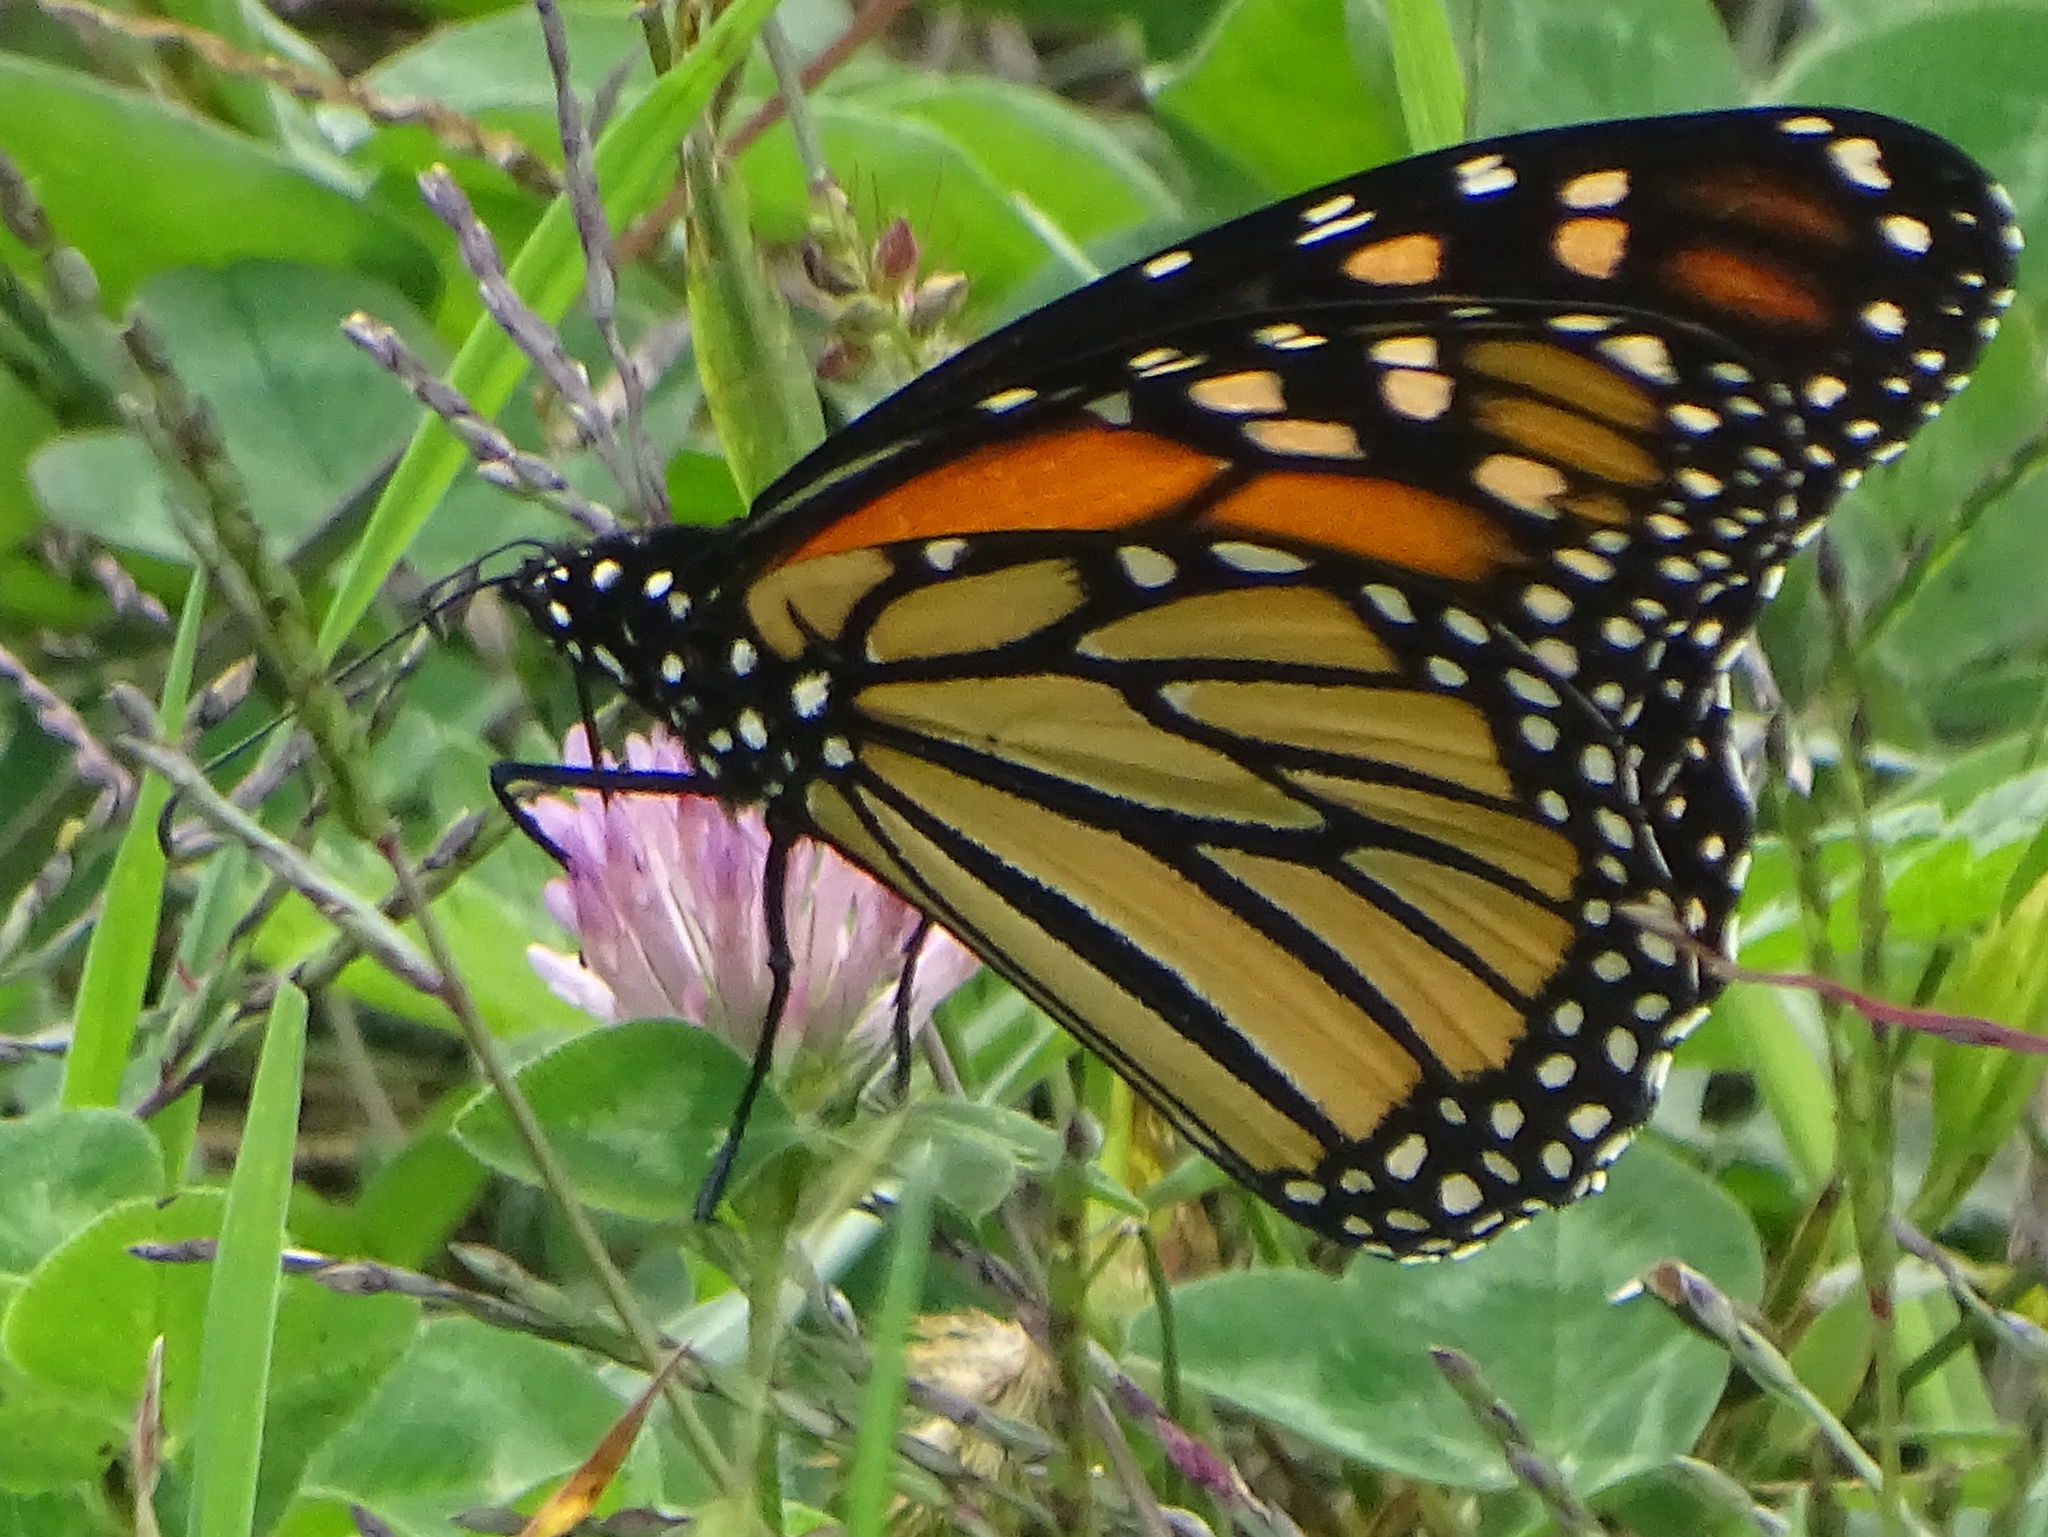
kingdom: Animalia
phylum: Arthropoda
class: Insecta
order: Lepidoptera
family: Nymphalidae
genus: Danaus
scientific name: Danaus plexippus
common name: Monarch
